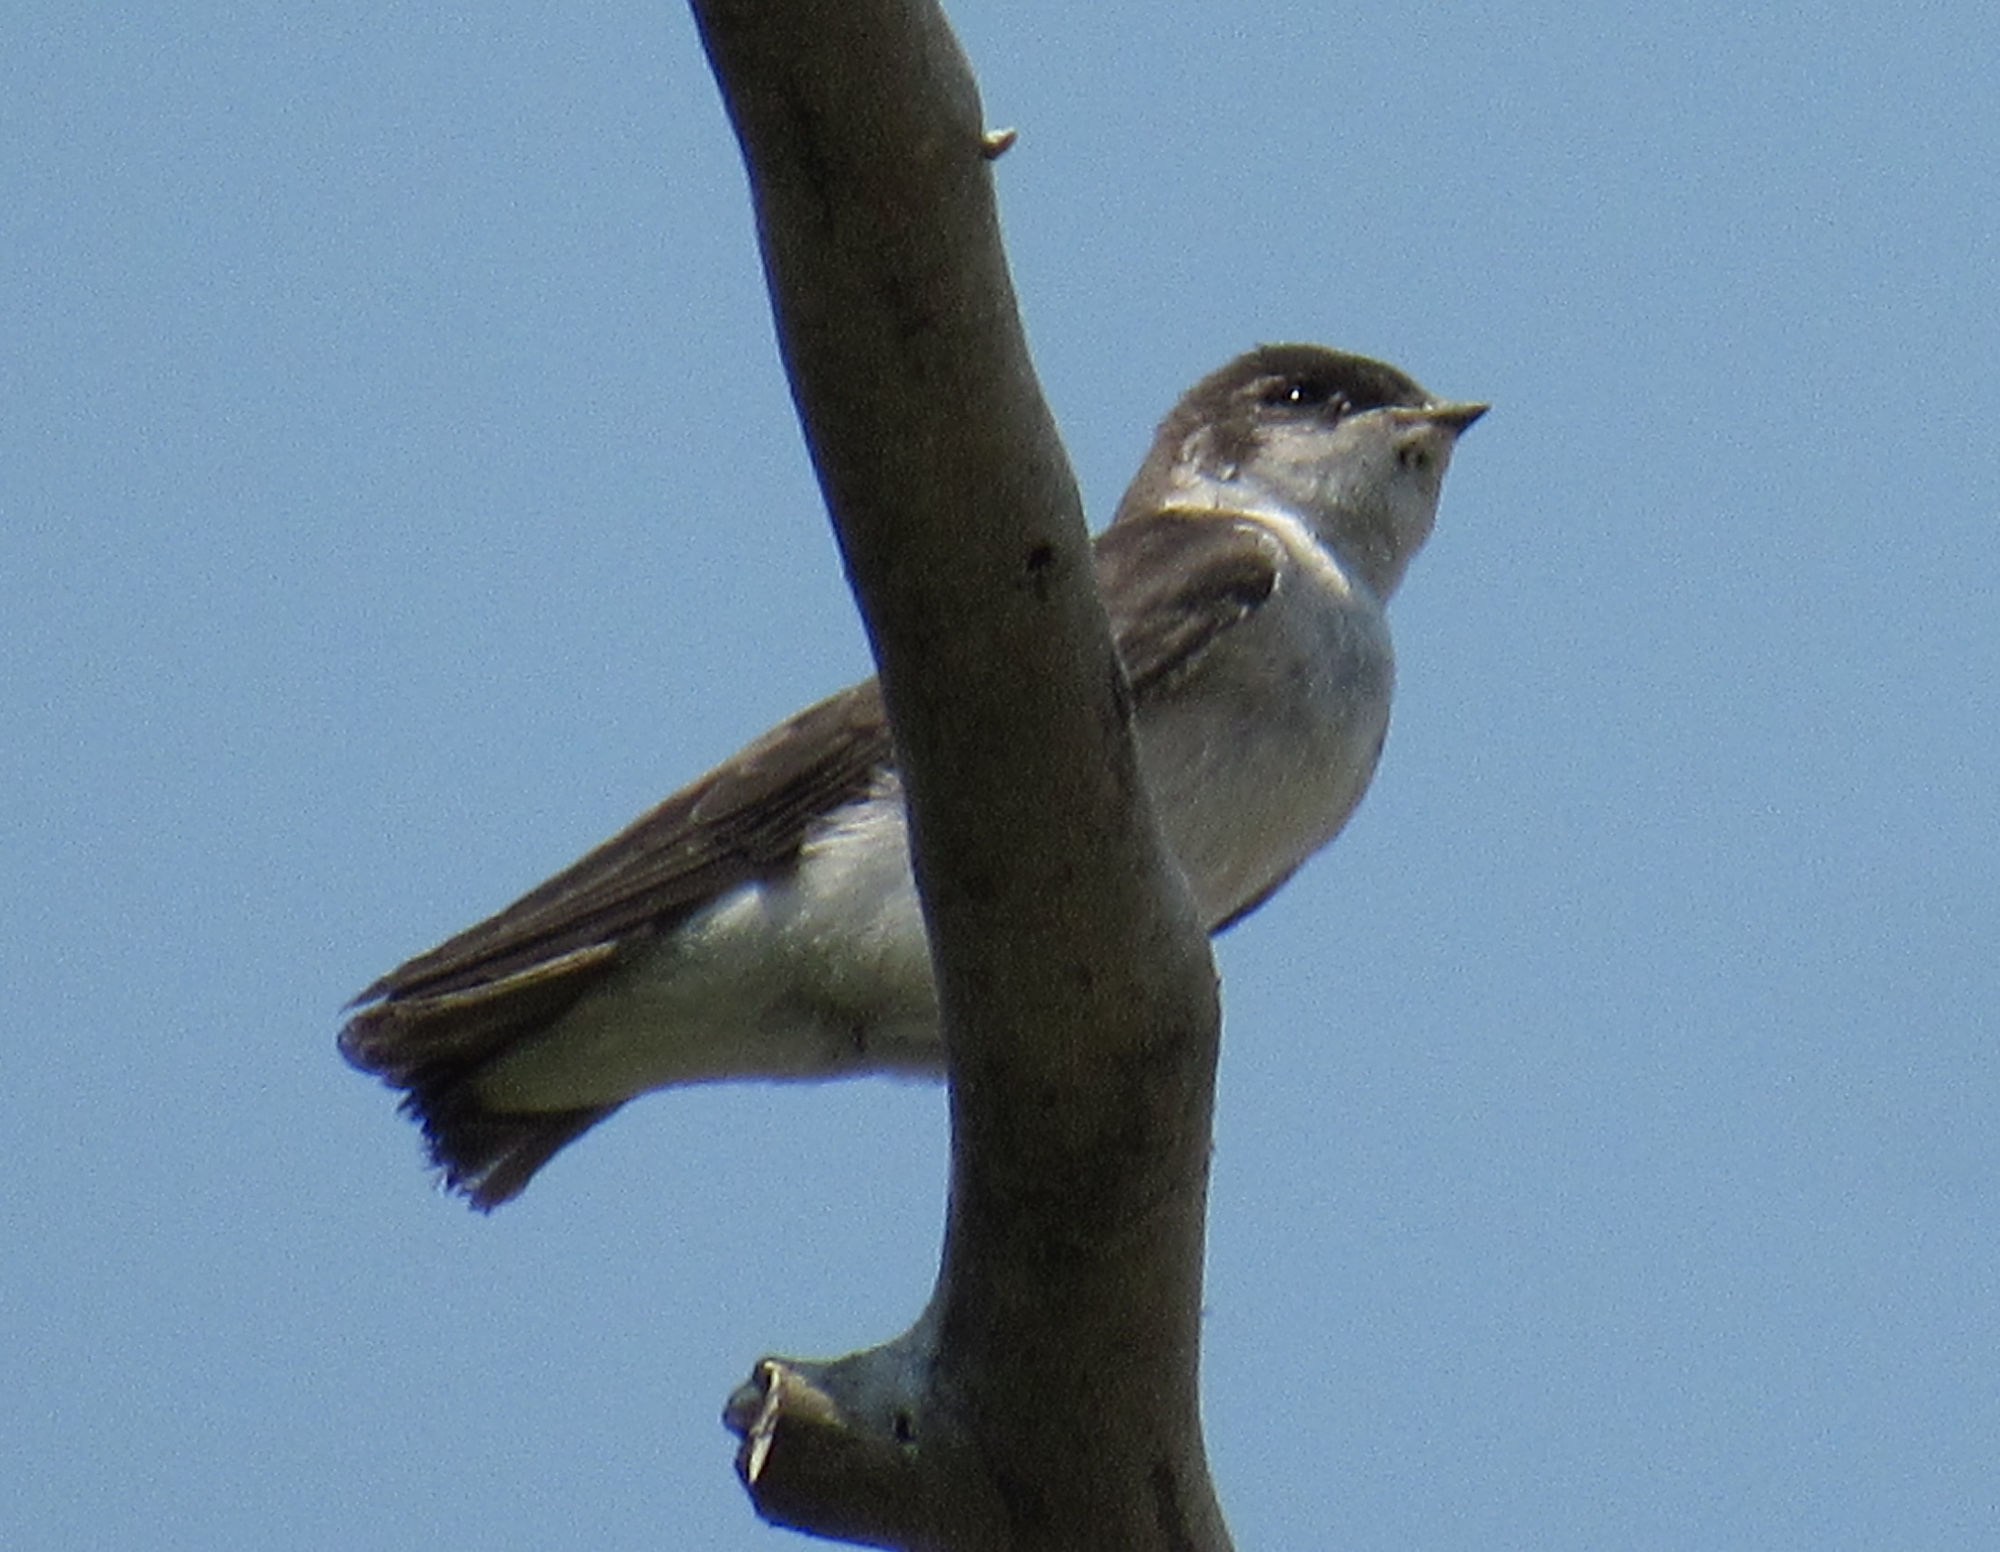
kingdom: Animalia
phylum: Chordata
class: Aves
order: Passeriformes
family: Hirundinidae
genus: Tachycineta
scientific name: Tachycineta thalassina
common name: Violet-green swallow
